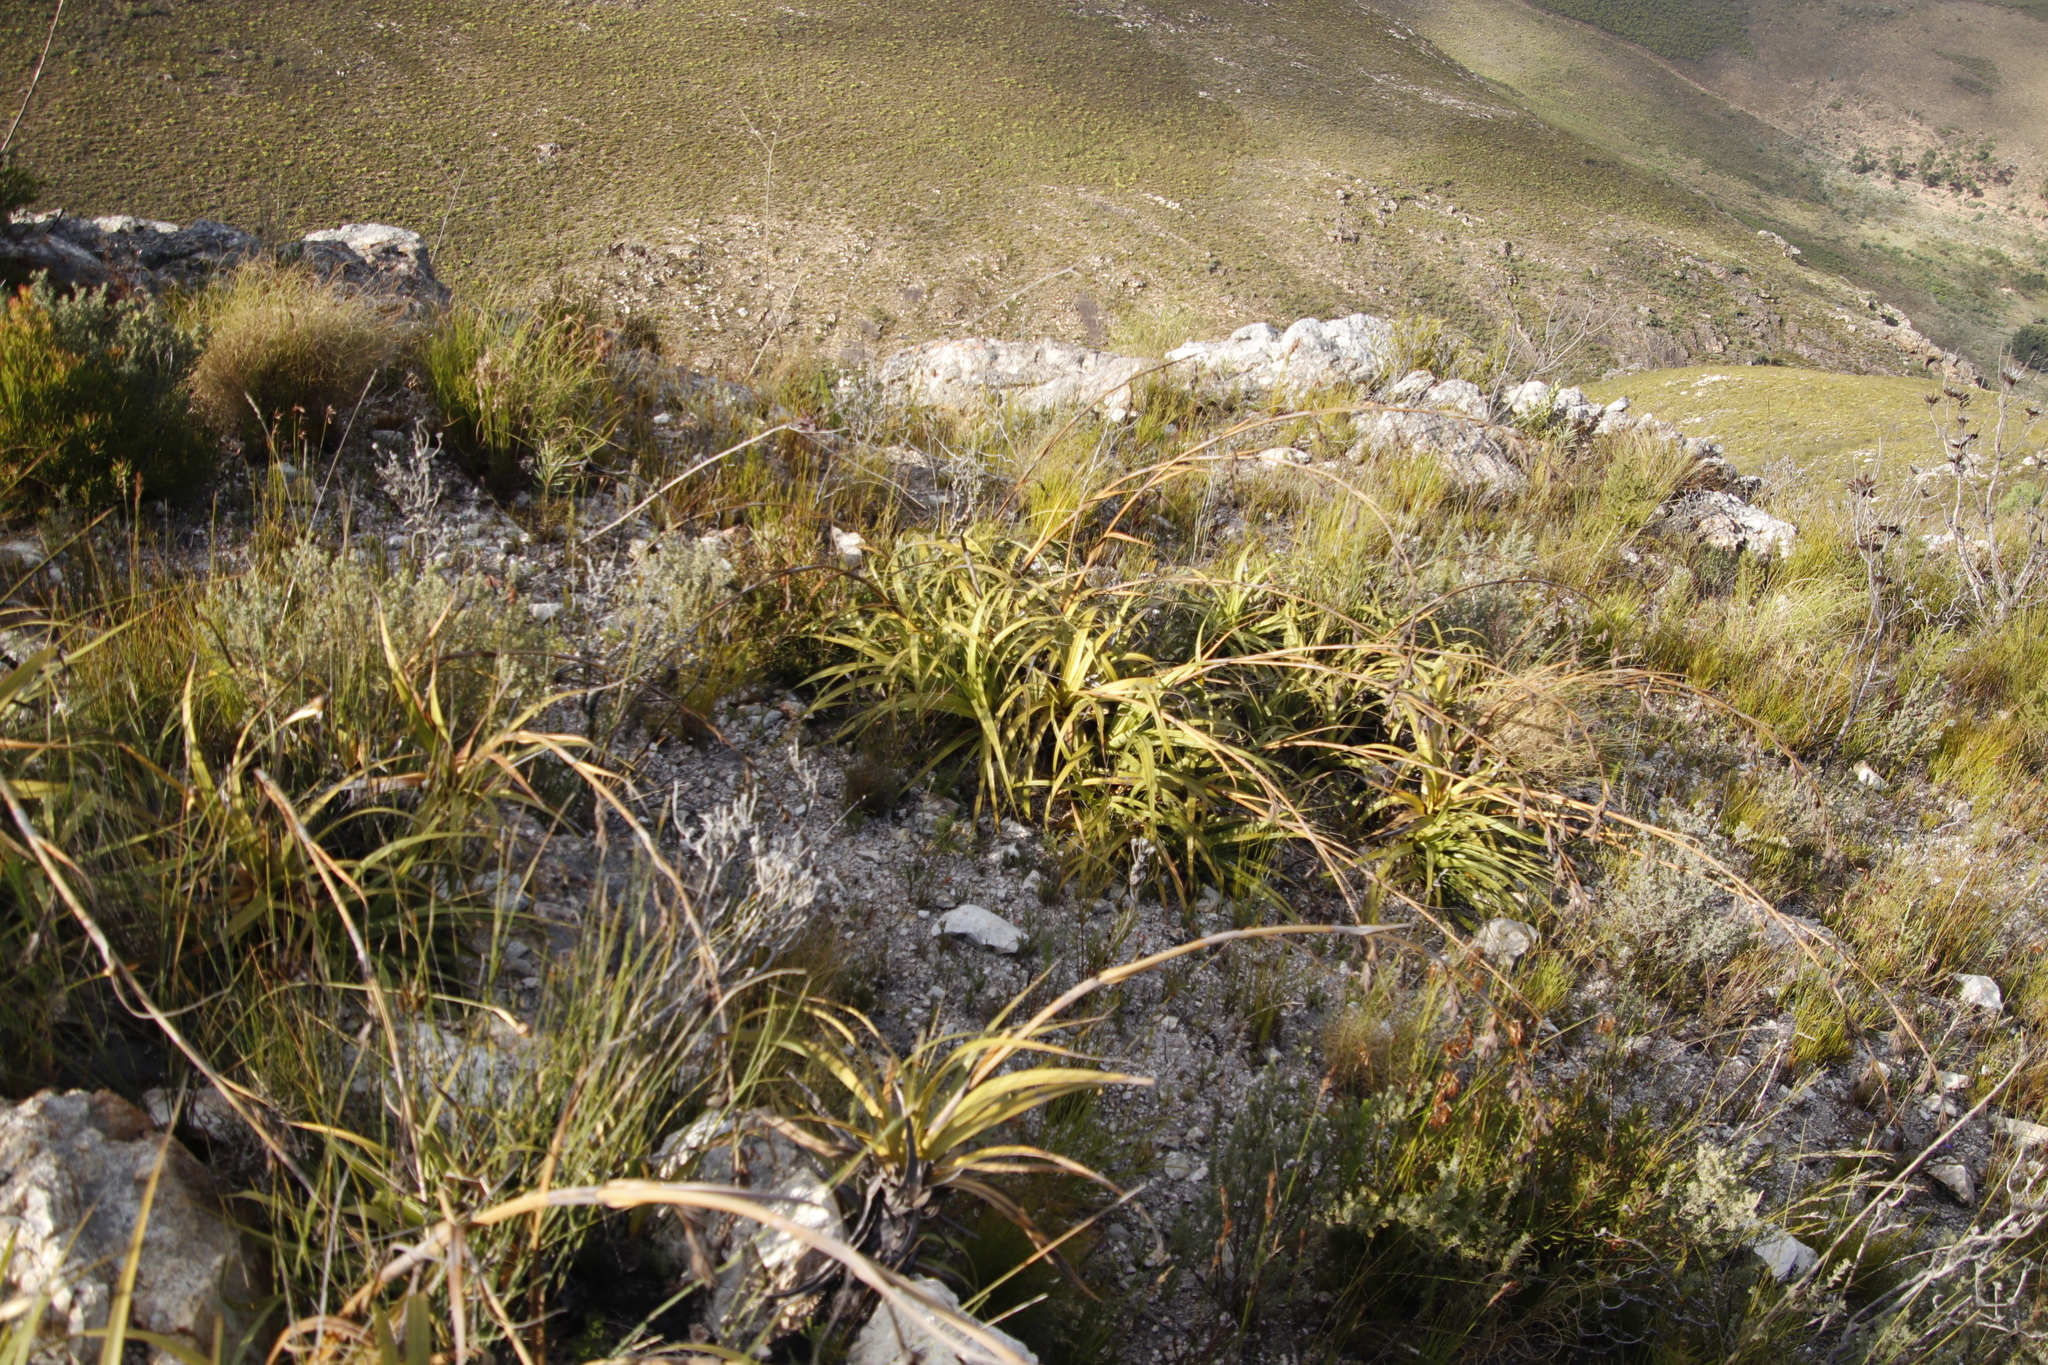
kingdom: Plantae
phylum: Tracheophyta
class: Liliopsida
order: Poales
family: Cyperaceae
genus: Tetraria
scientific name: Tetraria thermalis
